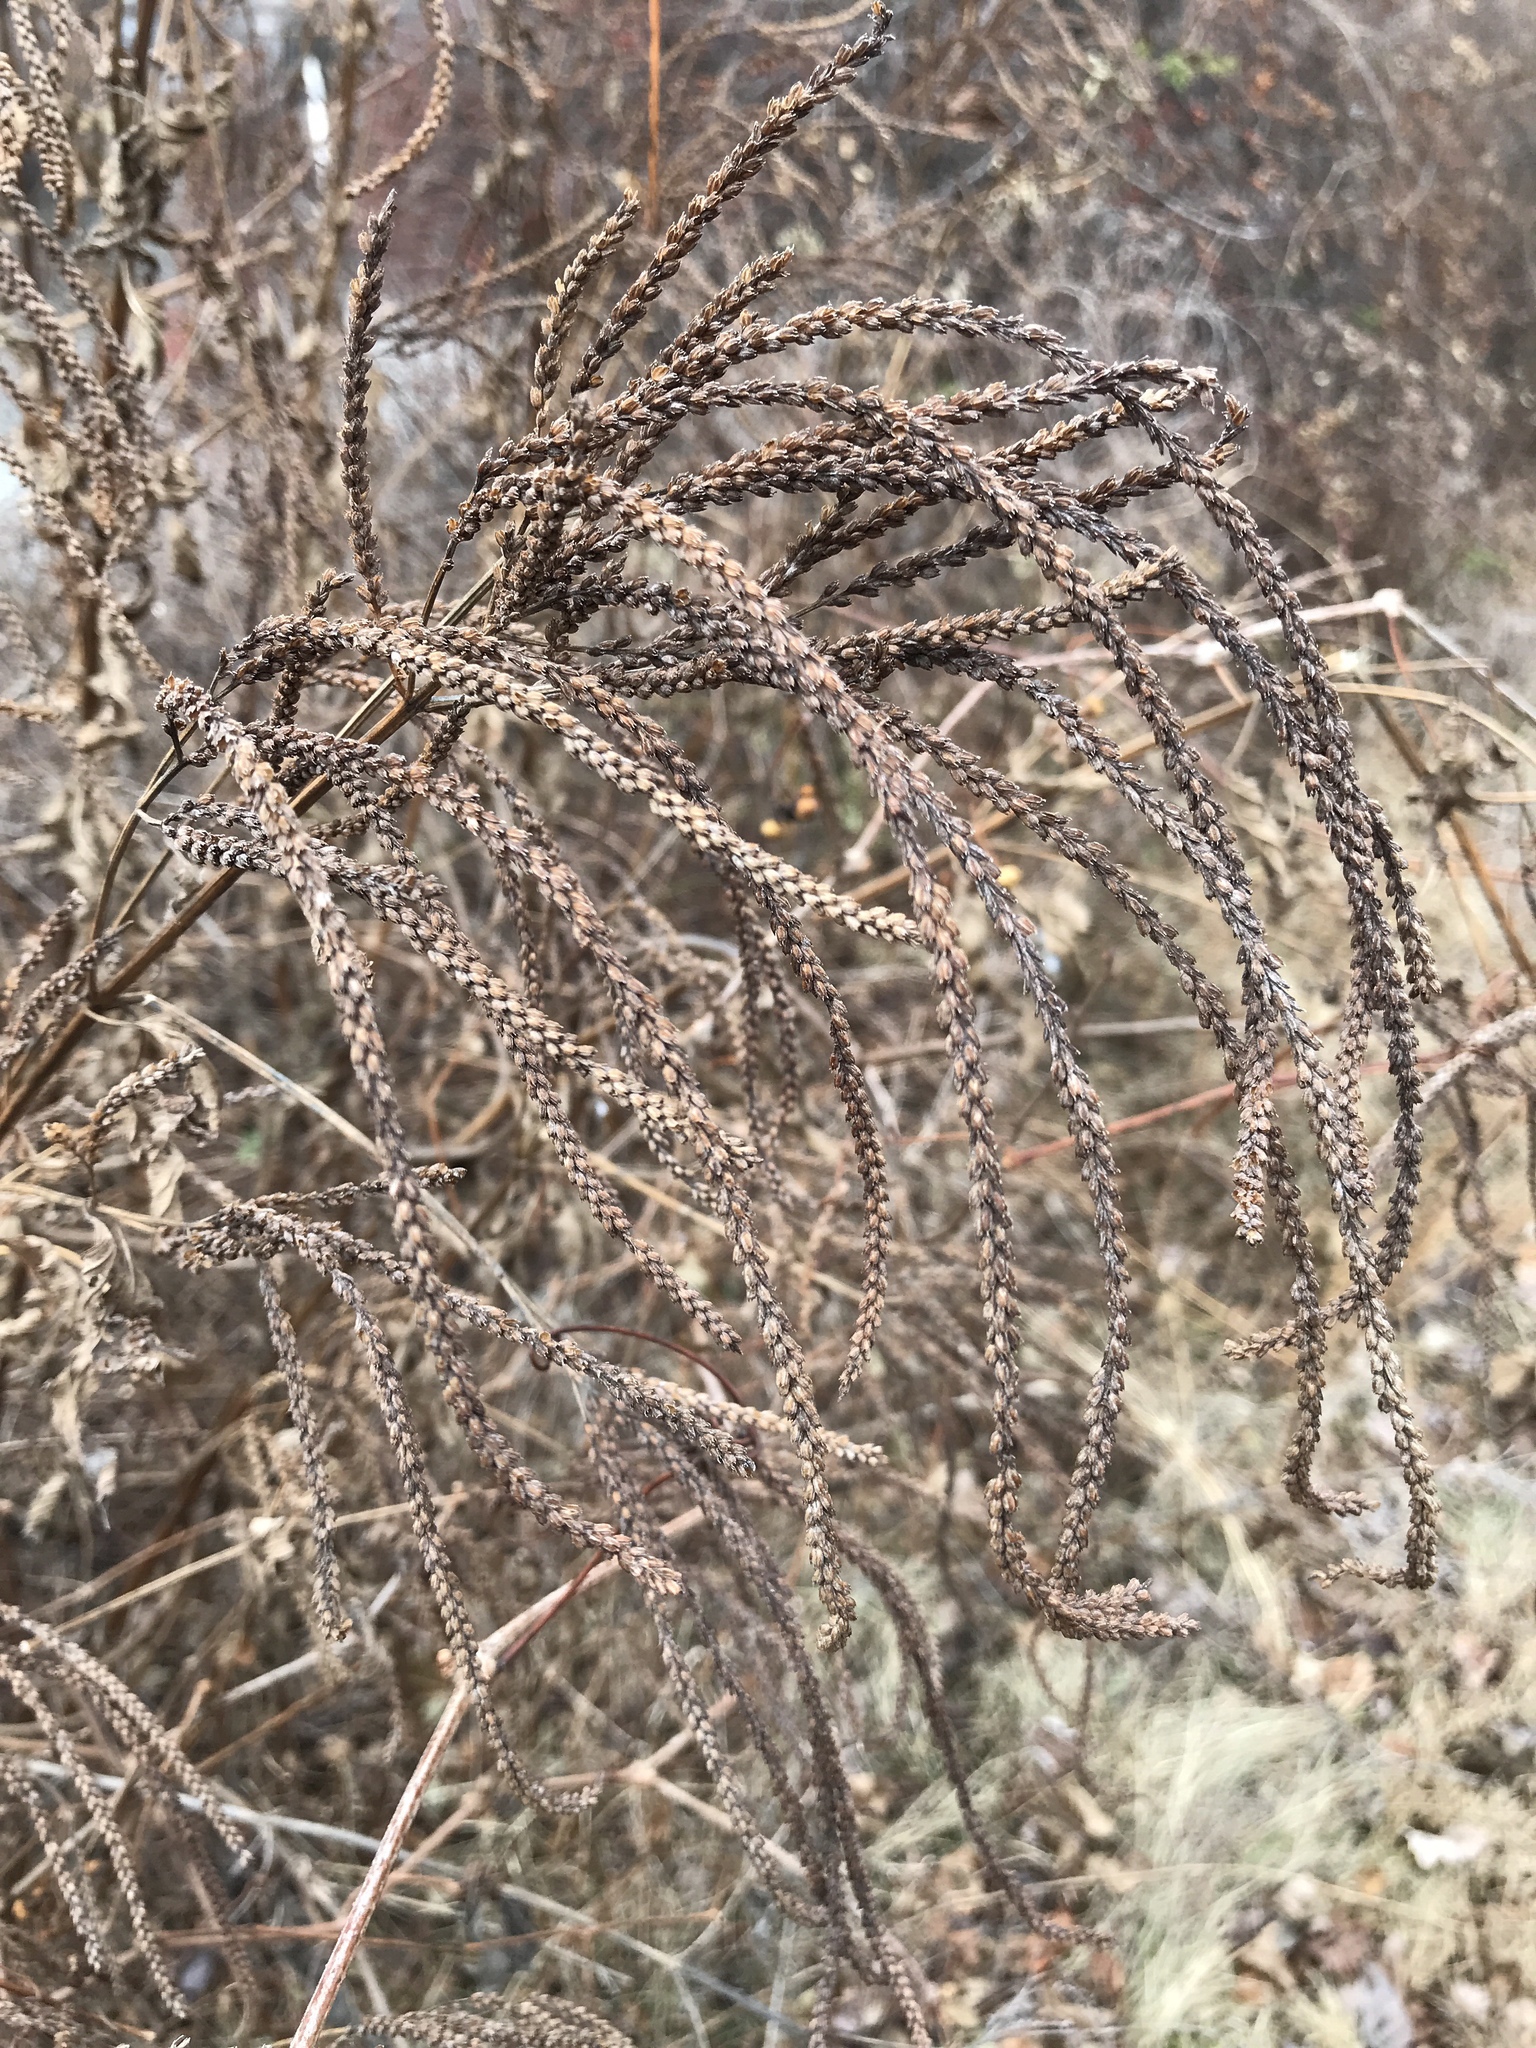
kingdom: Plantae
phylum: Tracheophyta
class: Magnoliopsida
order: Lamiales
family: Verbenaceae
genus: Verbena
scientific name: Verbena hastata
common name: American blue vervain
